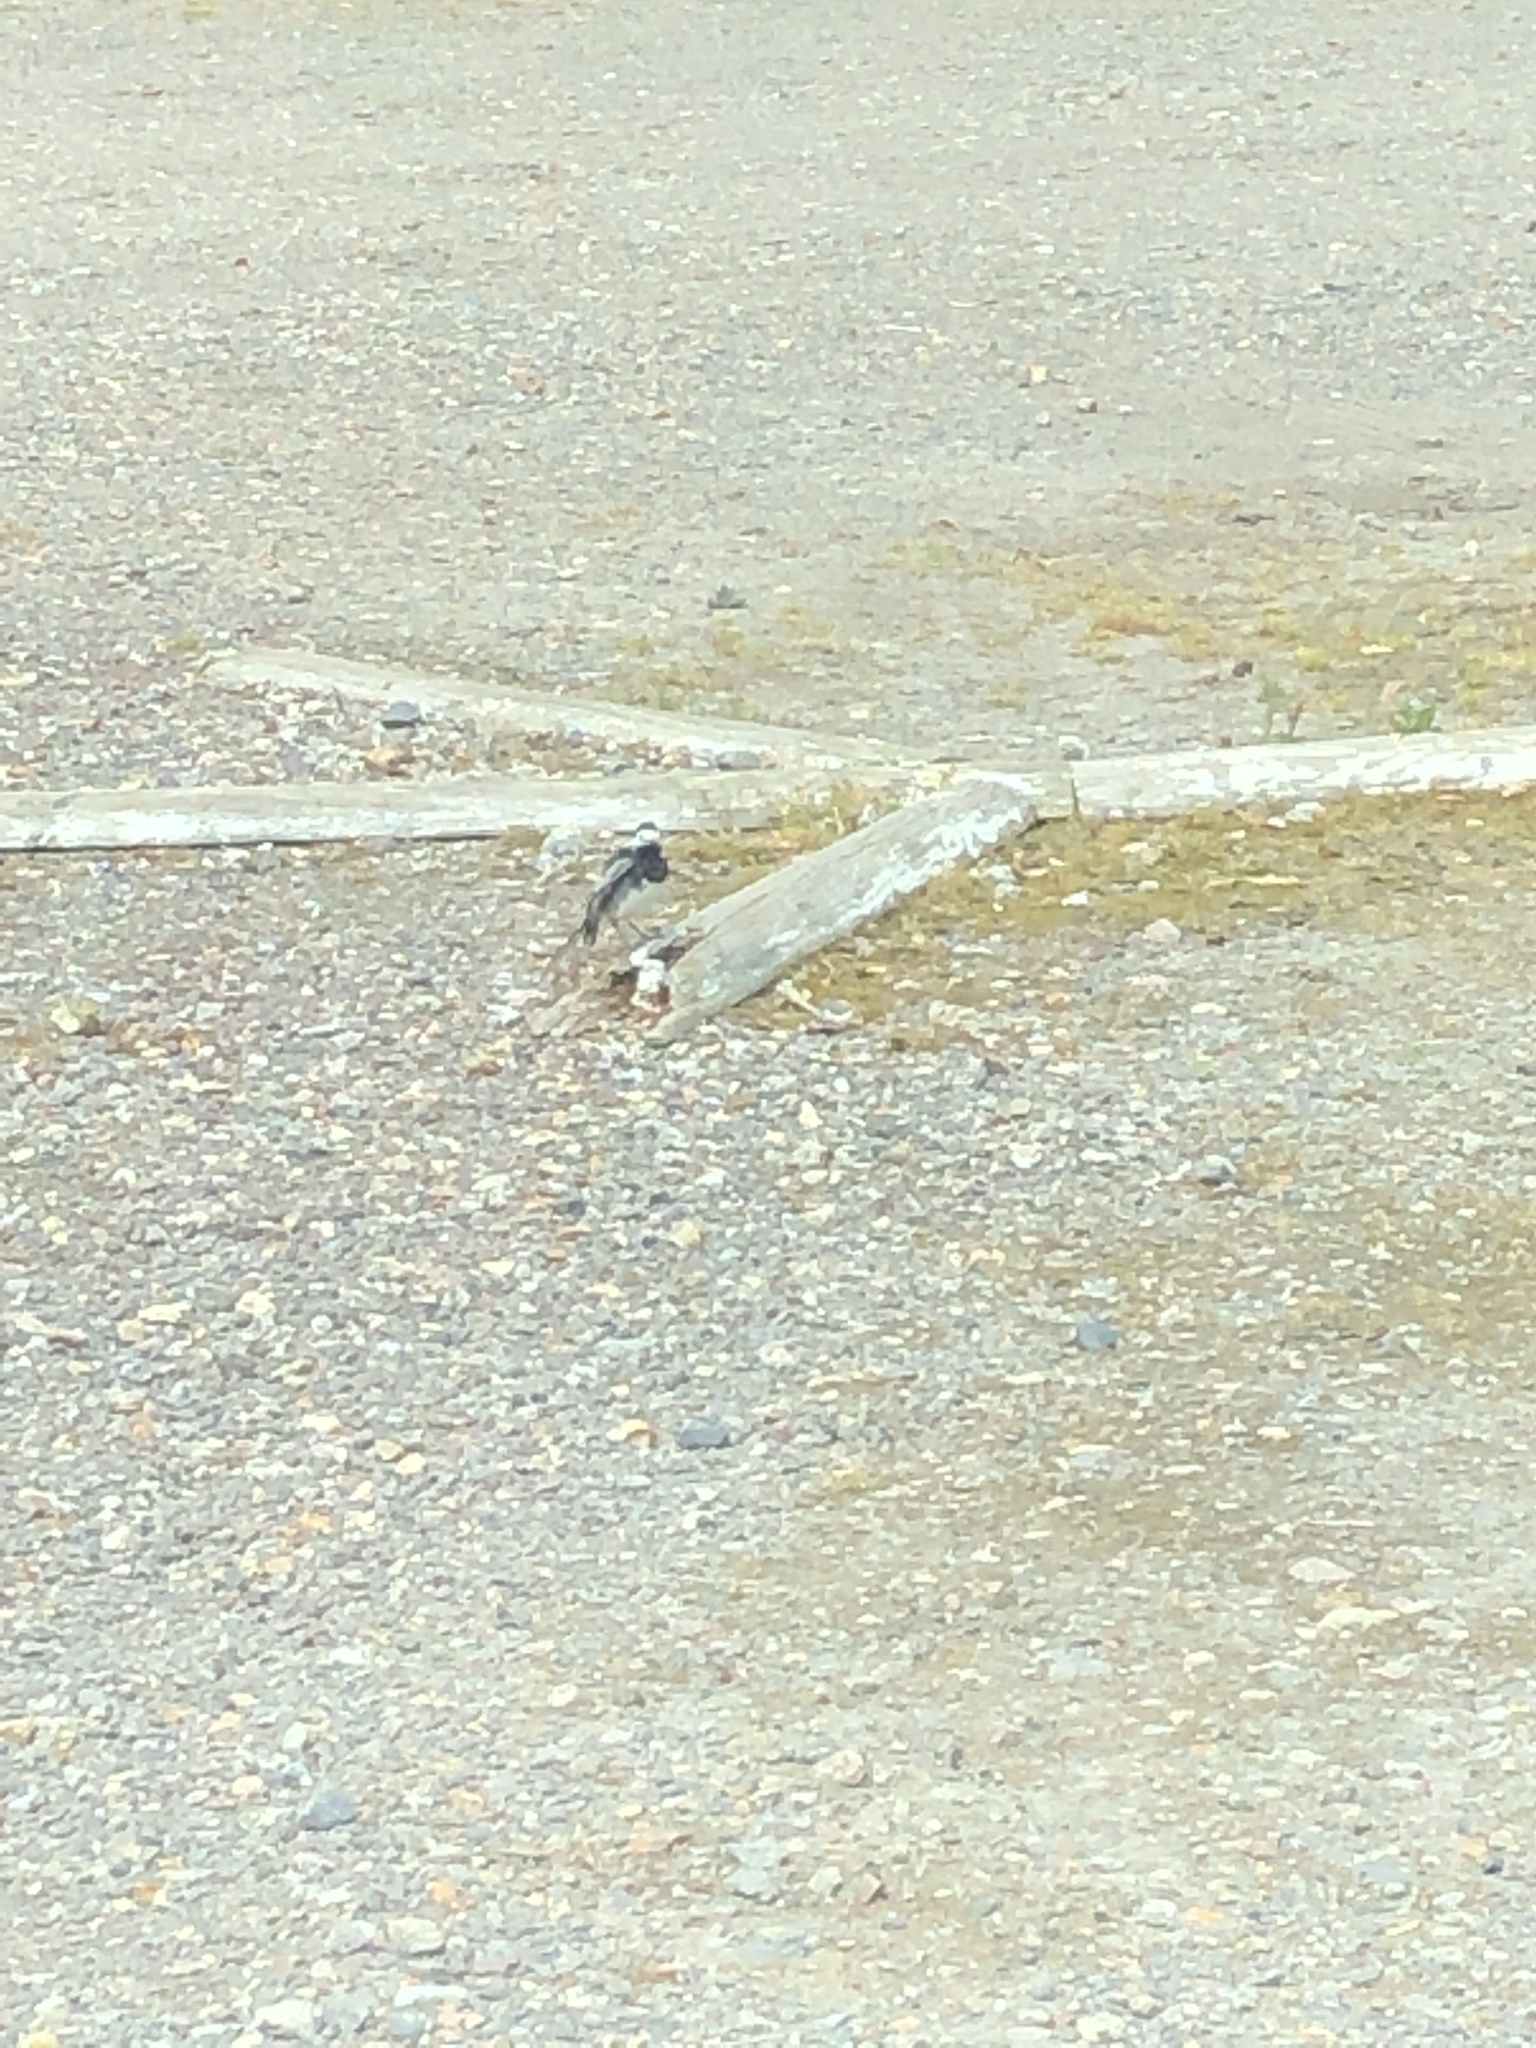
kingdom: Animalia
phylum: Chordata
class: Aves
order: Passeriformes
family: Motacillidae
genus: Motacilla
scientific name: Motacilla alba
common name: White wagtail
